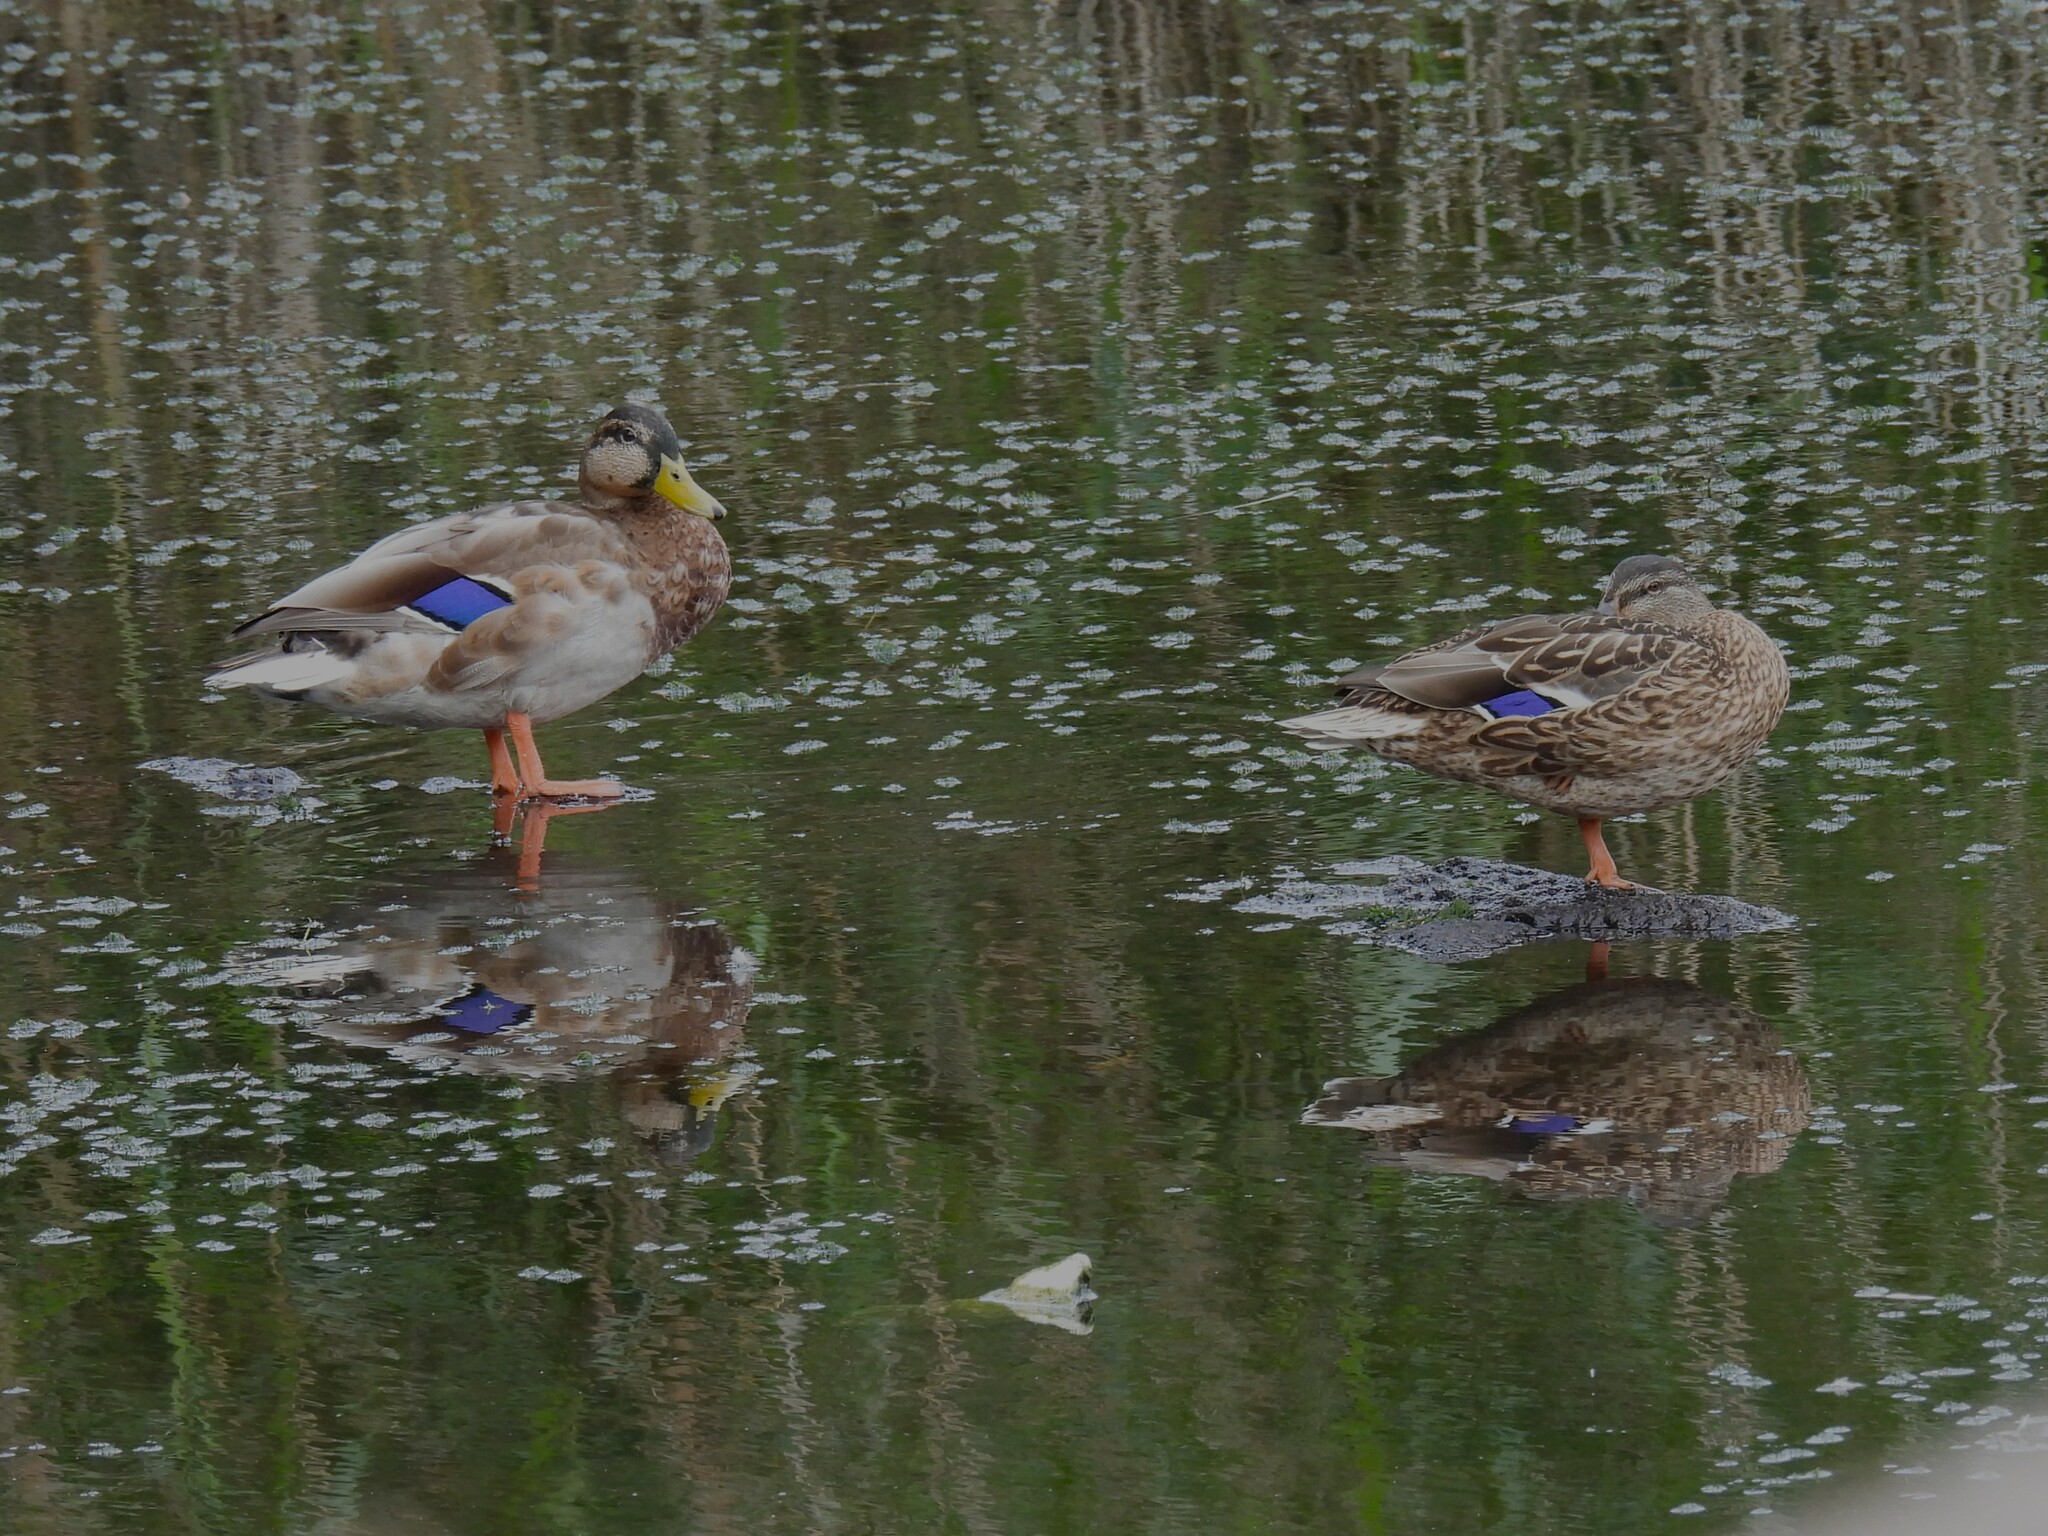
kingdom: Animalia
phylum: Chordata
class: Aves
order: Anseriformes
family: Anatidae
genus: Anas
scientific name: Anas platyrhynchos
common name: Mallard
